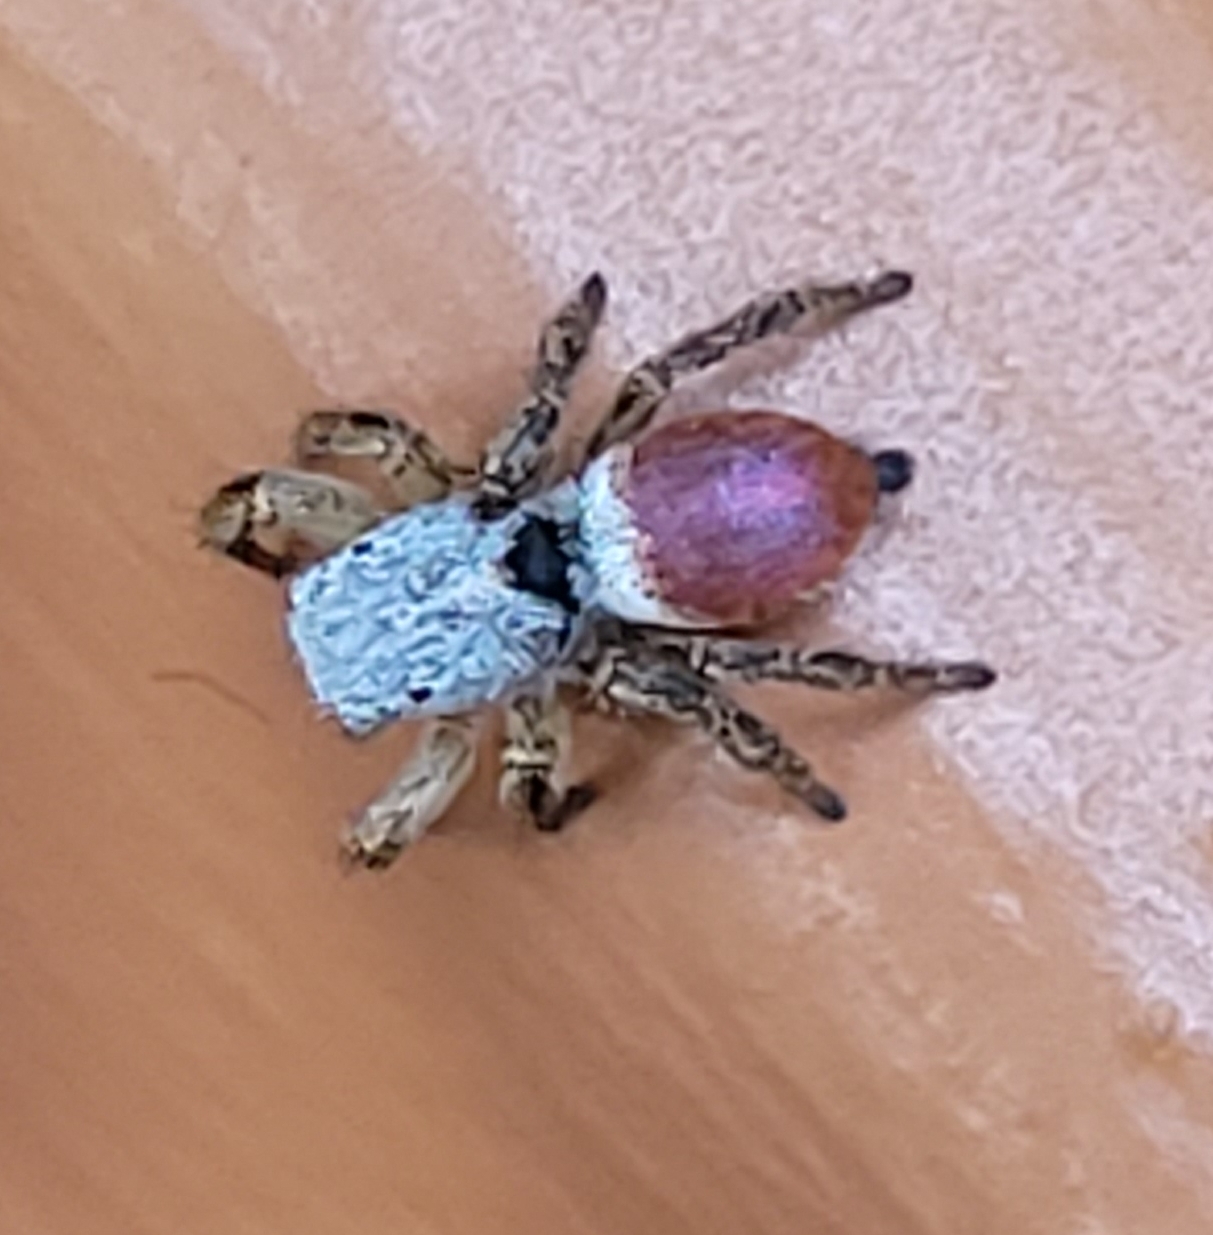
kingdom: Animalia
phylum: Arthropoda
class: Arachnida
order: Araneae
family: Salticidae
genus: Habronattus
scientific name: Habronattus decorus
